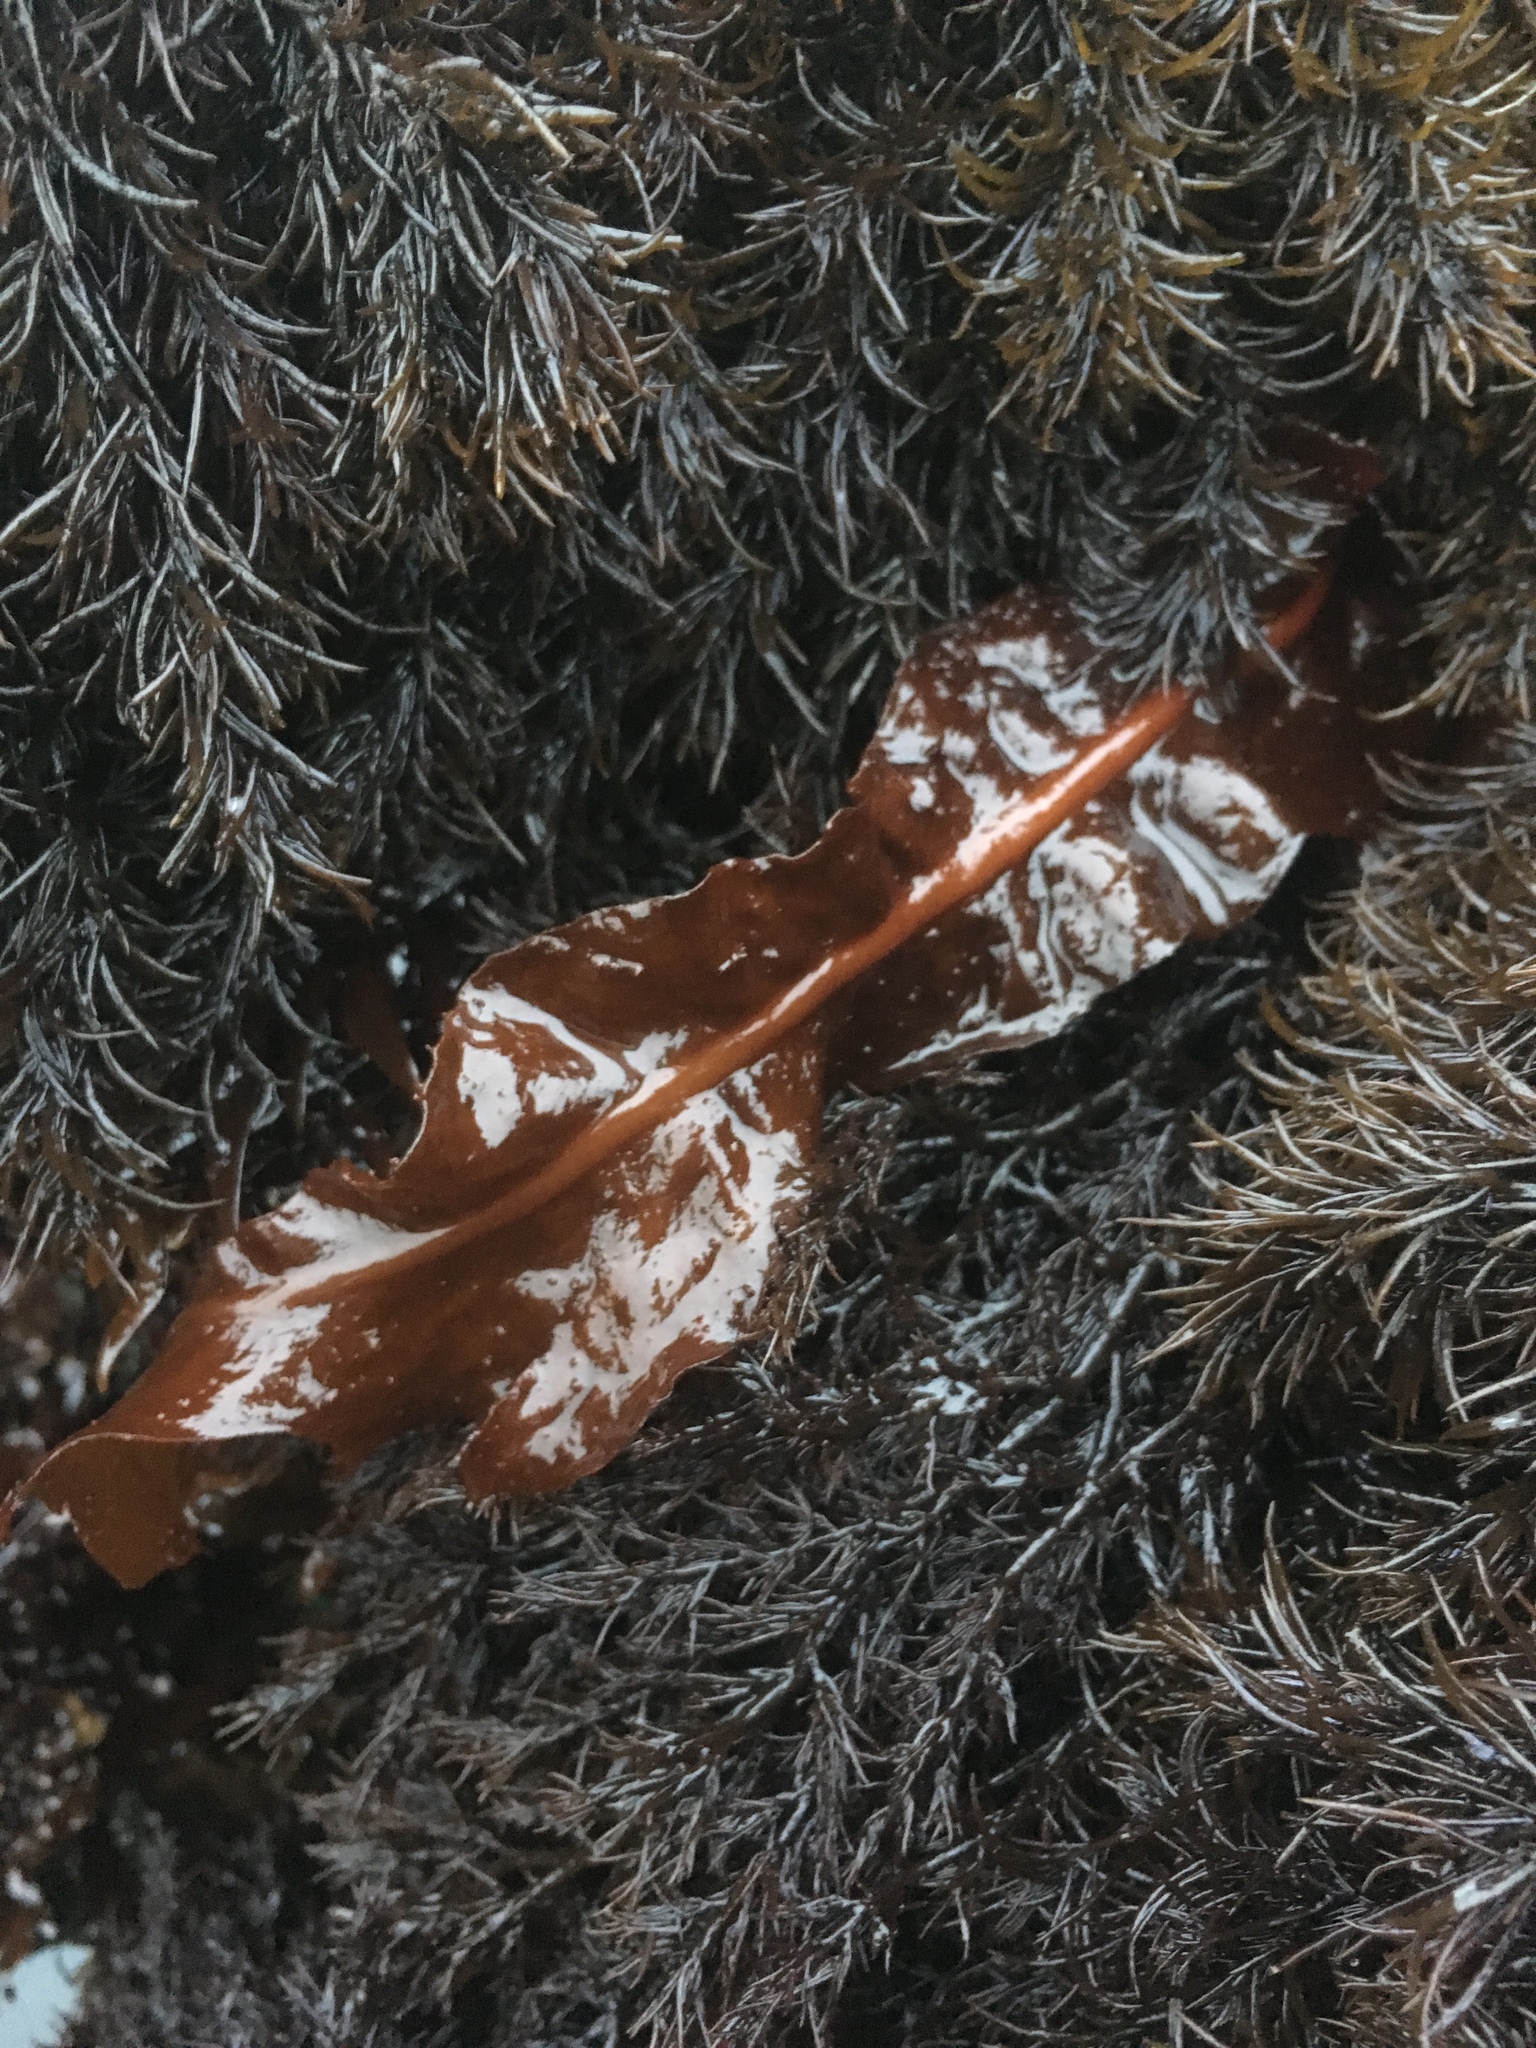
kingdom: Plantae
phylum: Rhodophyta
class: Florideophyceae
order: Gigartinales
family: Kallymeniaceae
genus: Erythrophyllum
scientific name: Erythrophyllum delesserioides
